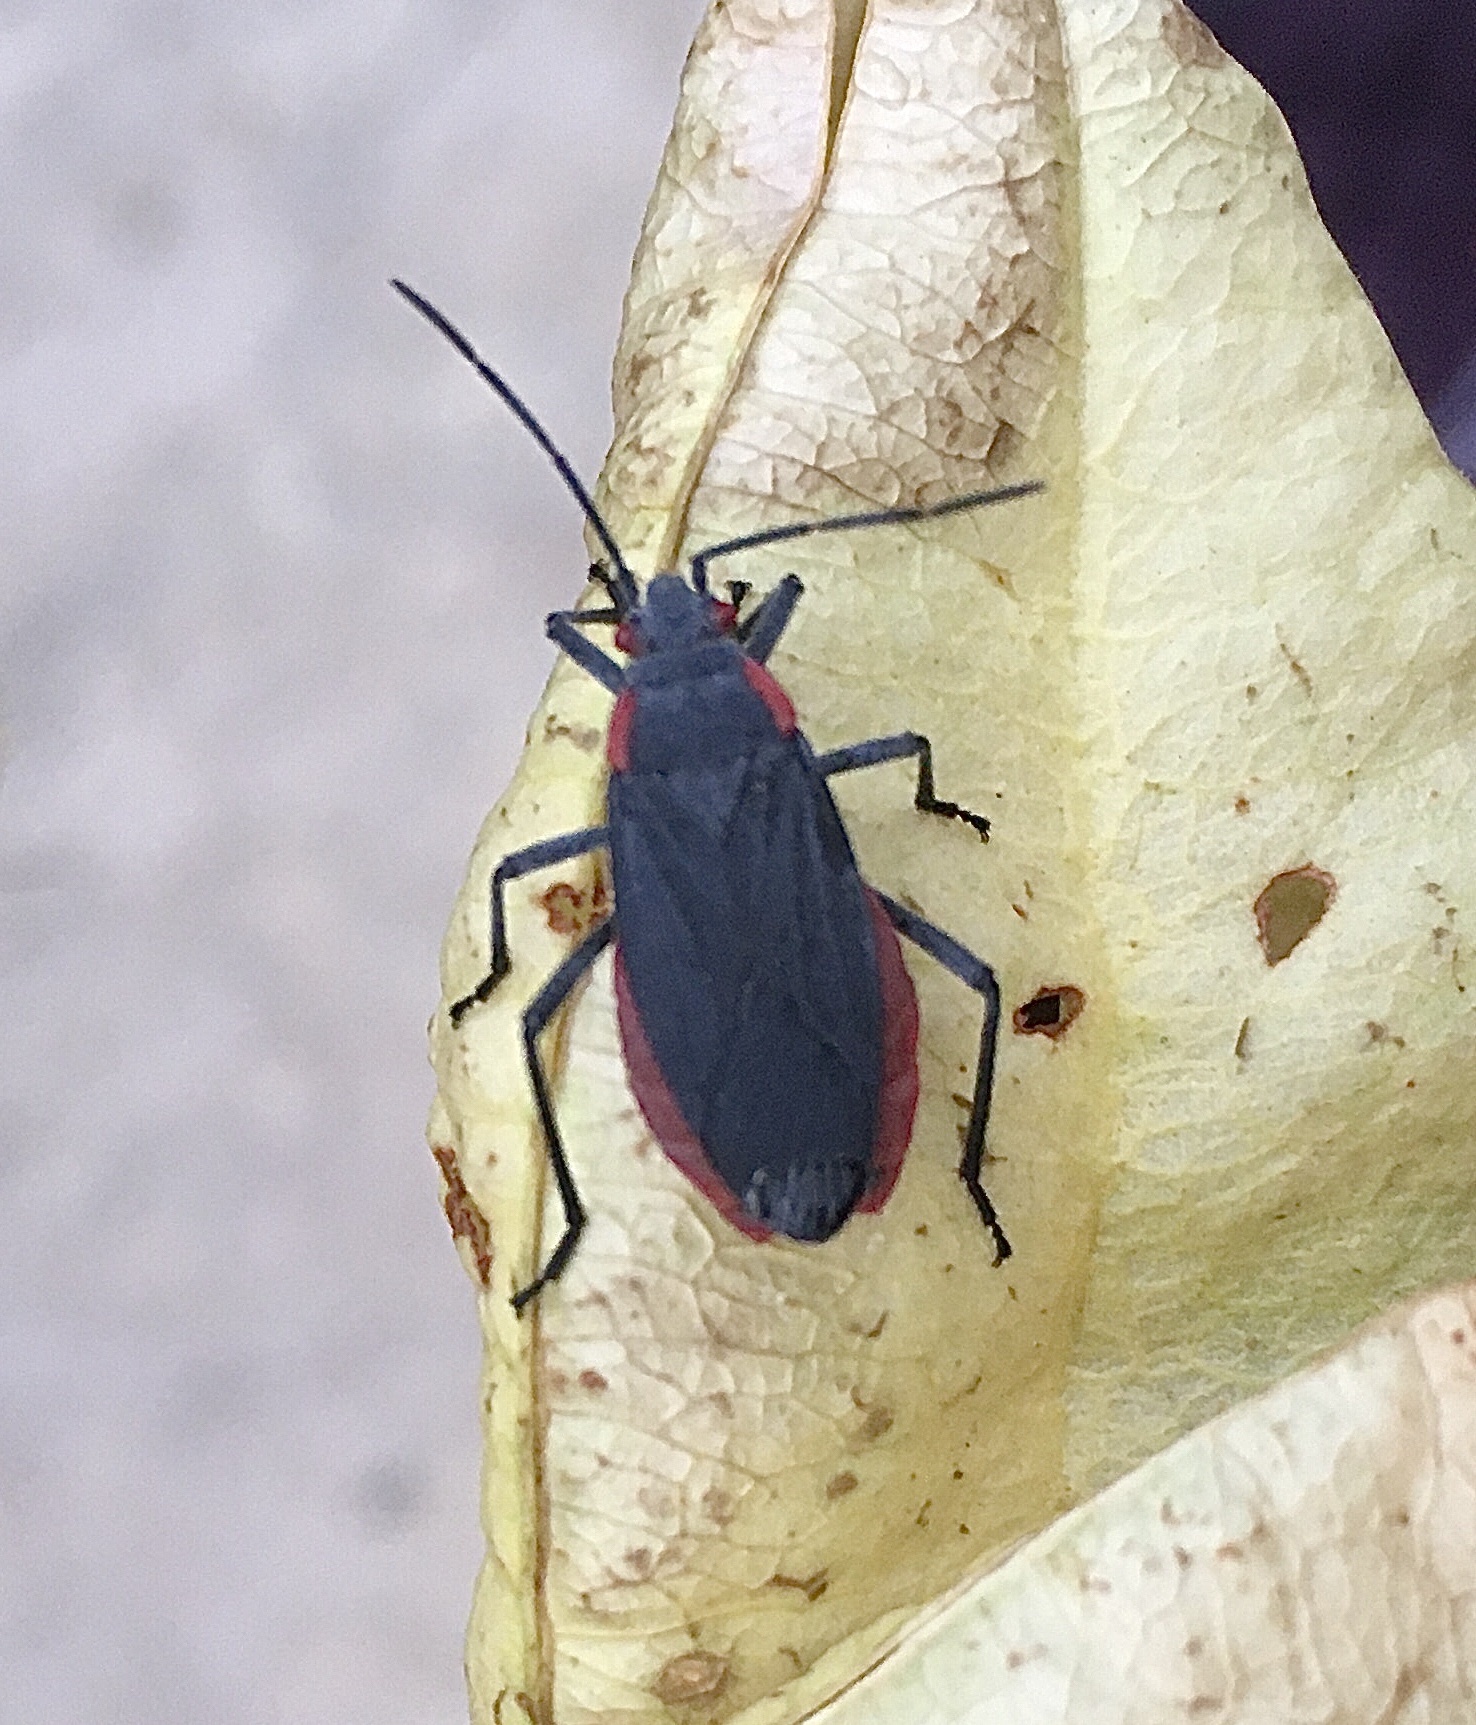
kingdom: Animalia
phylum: Arthropoda
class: Insecta
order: Hemiptera
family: Rhopalidae
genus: Jadera
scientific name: Jadera haematoloma
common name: Red-shouldered bug
